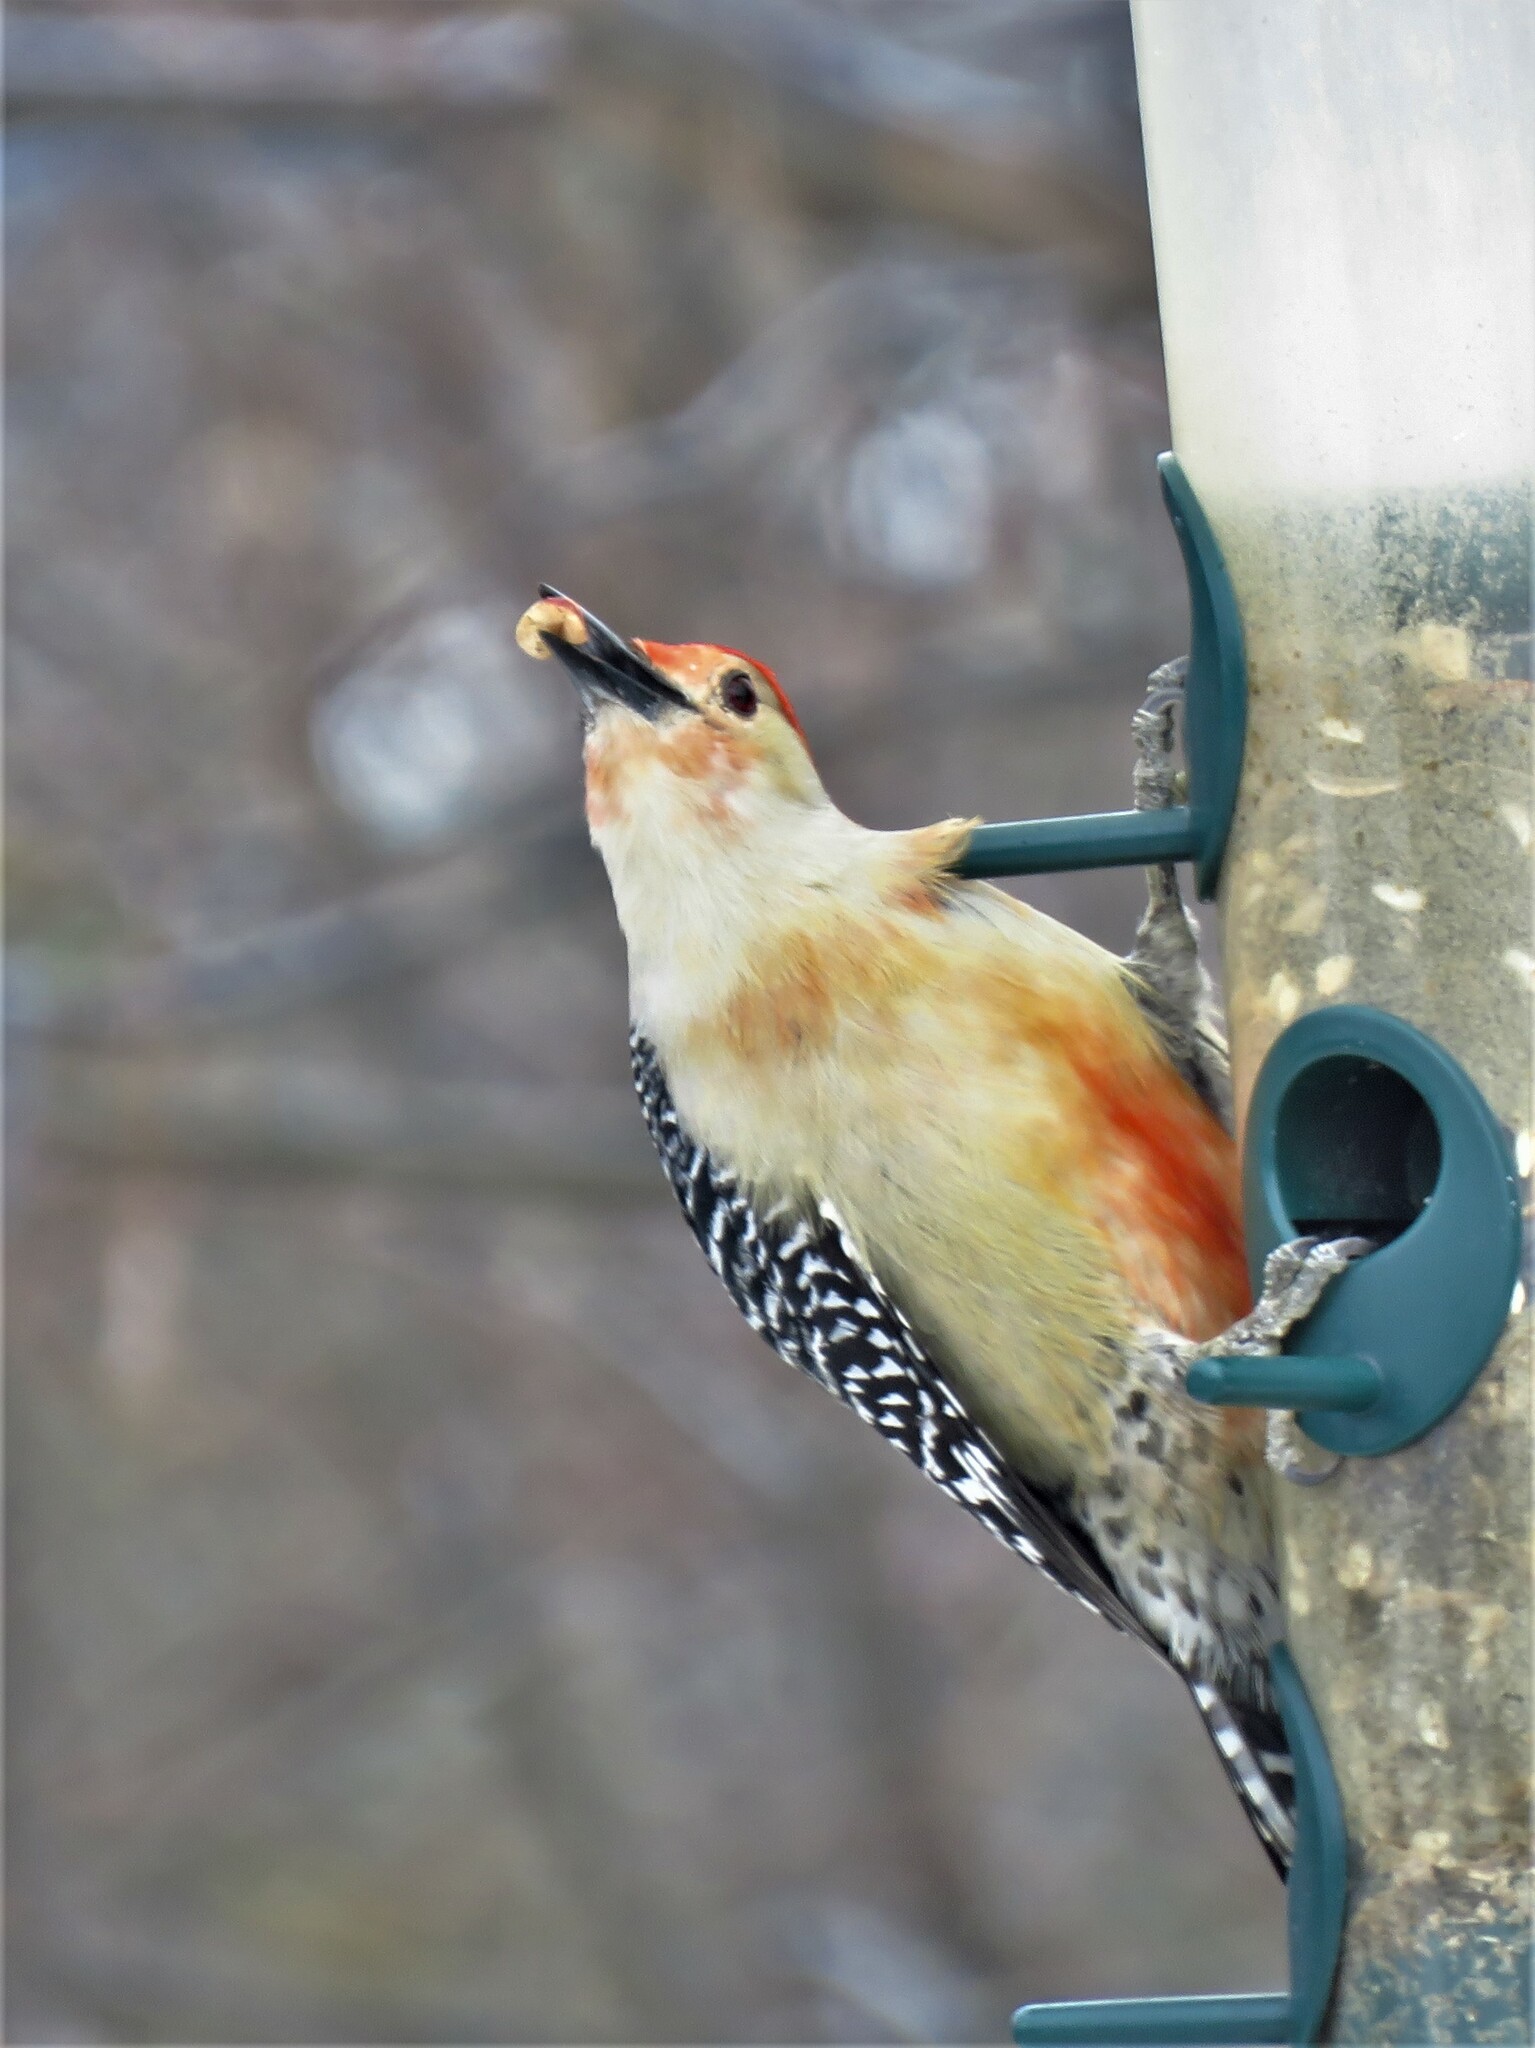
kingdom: Animalia
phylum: Chordata
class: Aves
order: Piciformes
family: Picidae
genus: Melanerpes
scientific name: Melanerpes carolinus
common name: Red-bellied woodpecker
